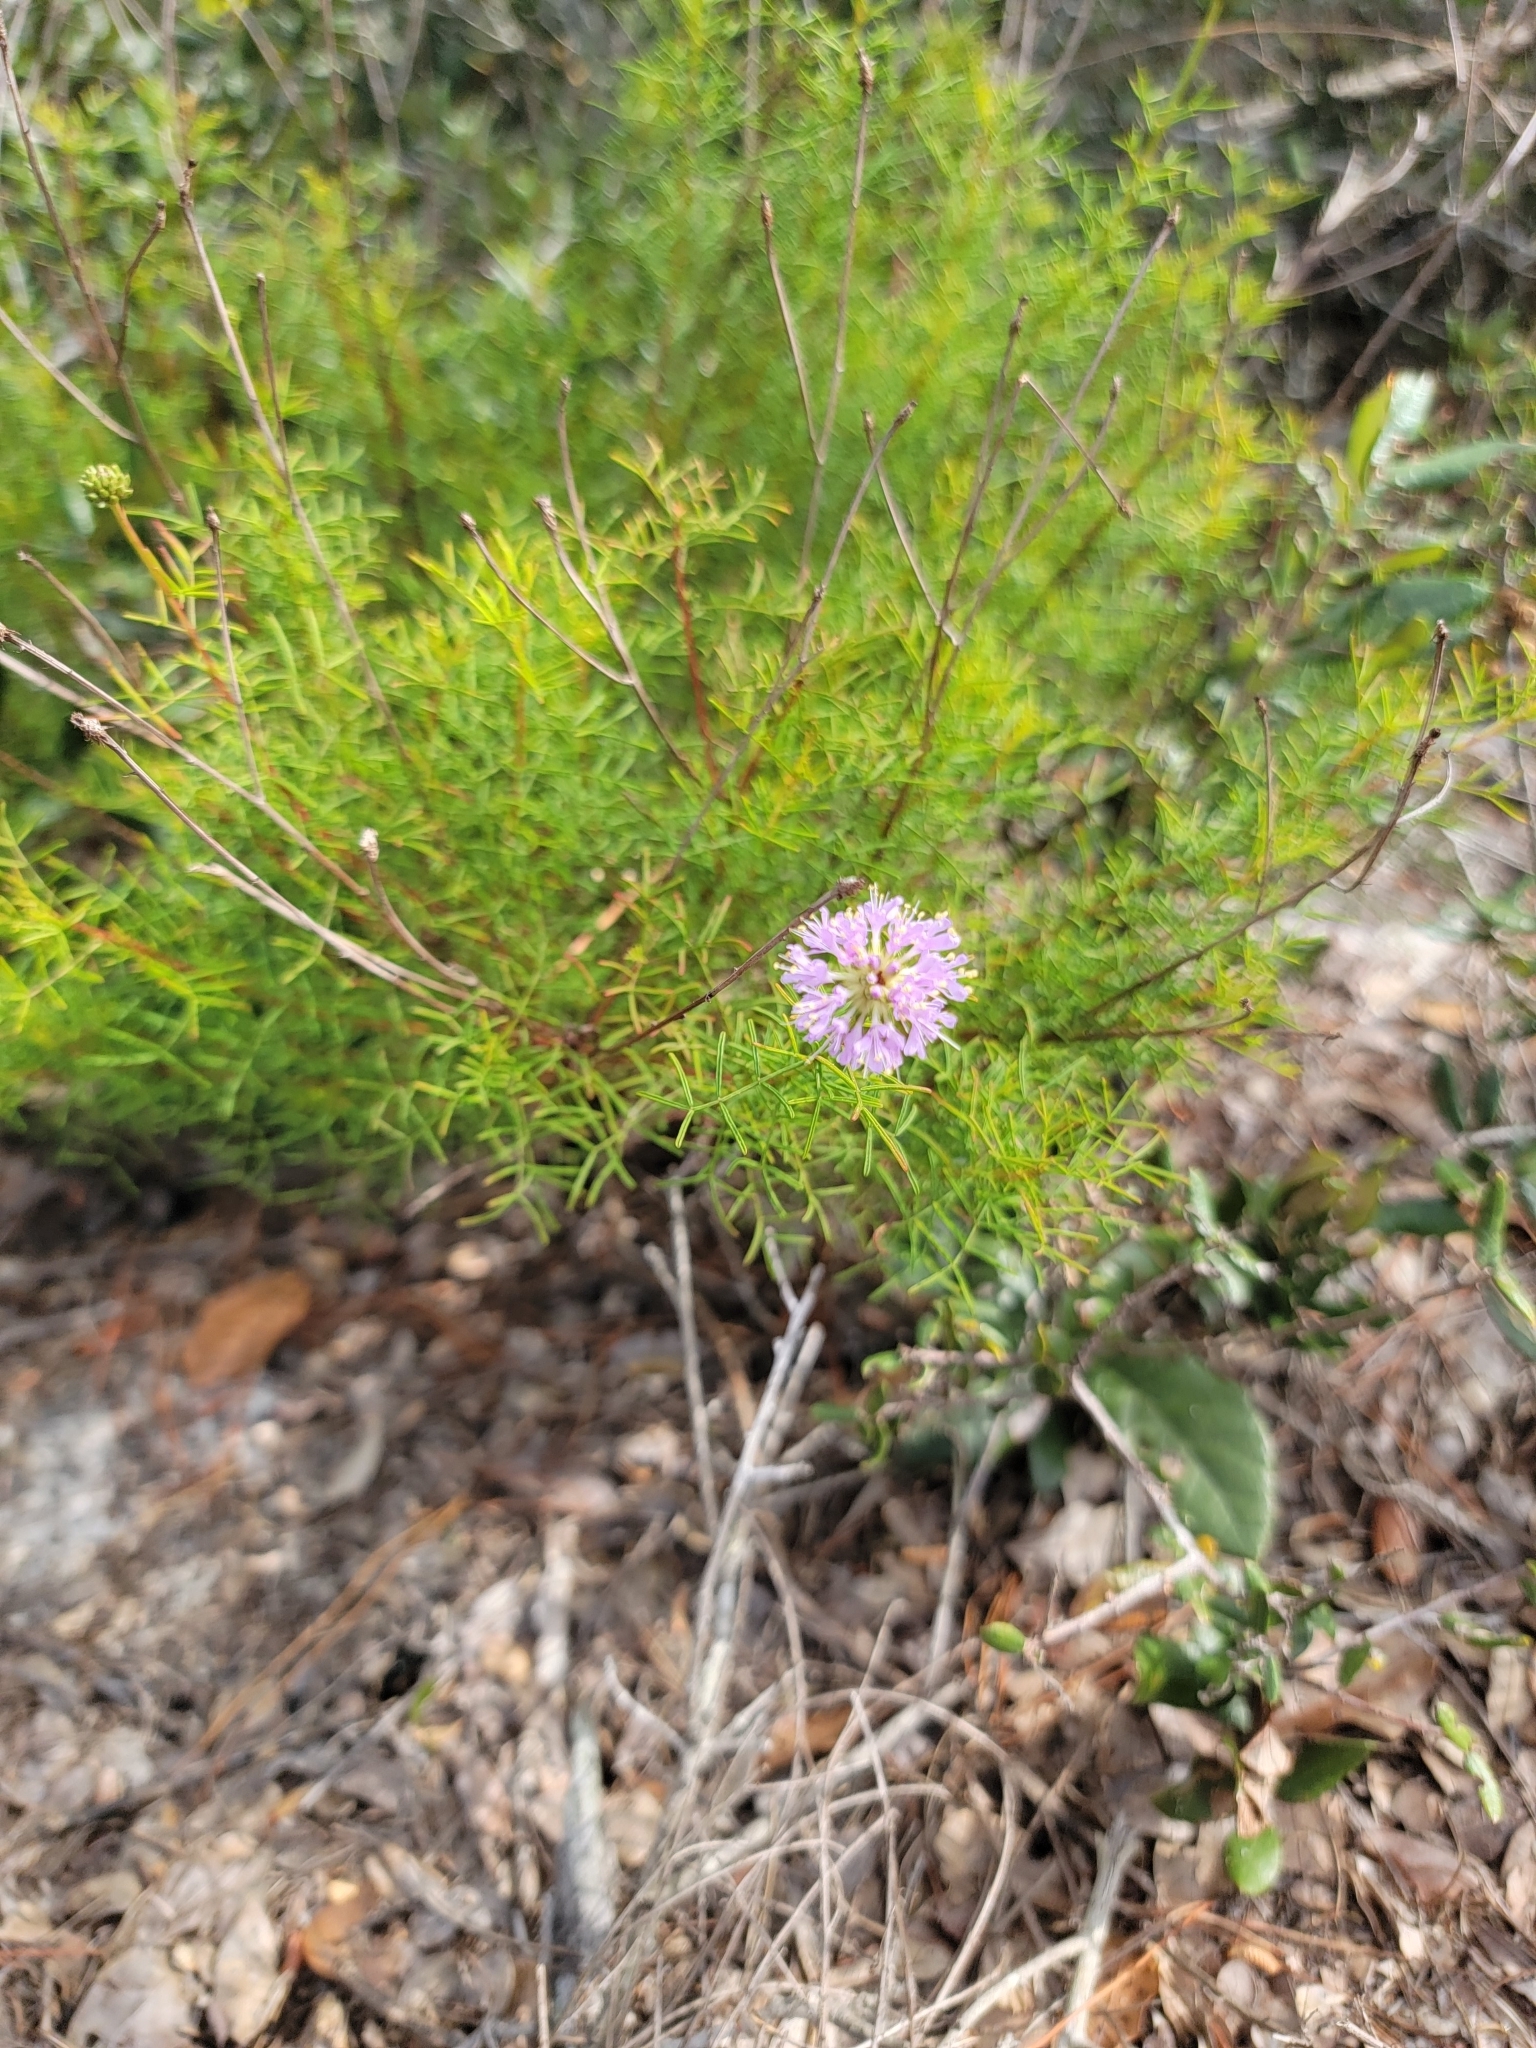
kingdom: Plantae
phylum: Tracheophyta
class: Magnoliopsida
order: Fabales
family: Fabaceae
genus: Dalea
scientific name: Dalea feayi
